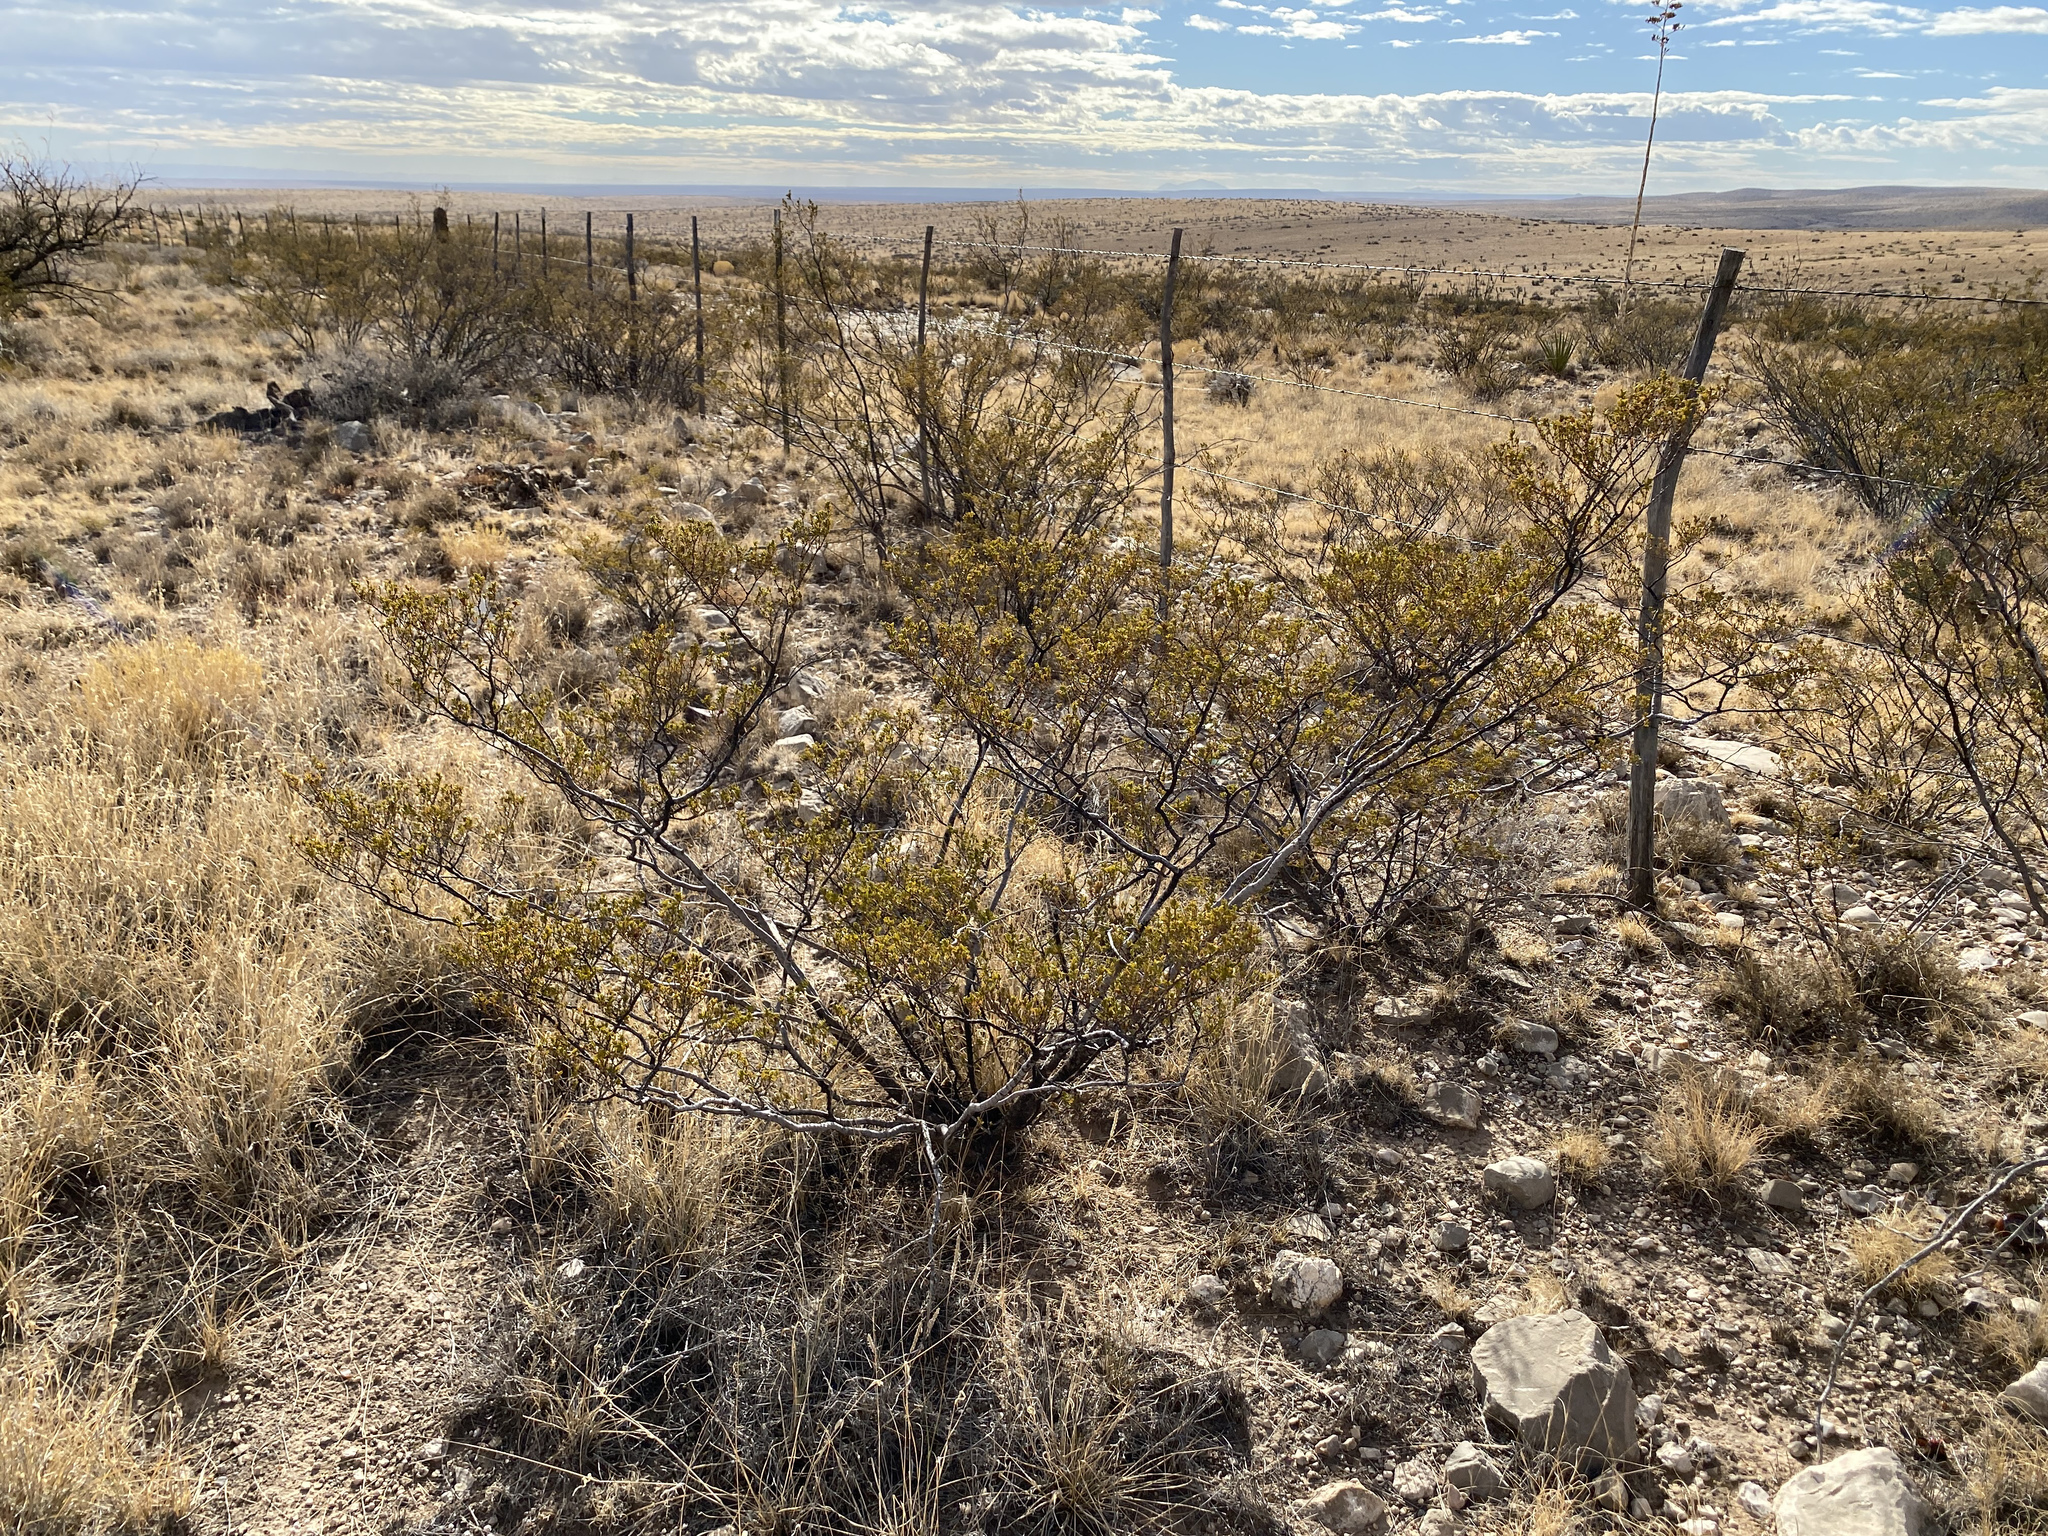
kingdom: Plantae
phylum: Tracheophyta
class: Magnoliopsida
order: Zygophyllales
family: Zygophyllaceae
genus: Larrea
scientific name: Larrea tridentata
